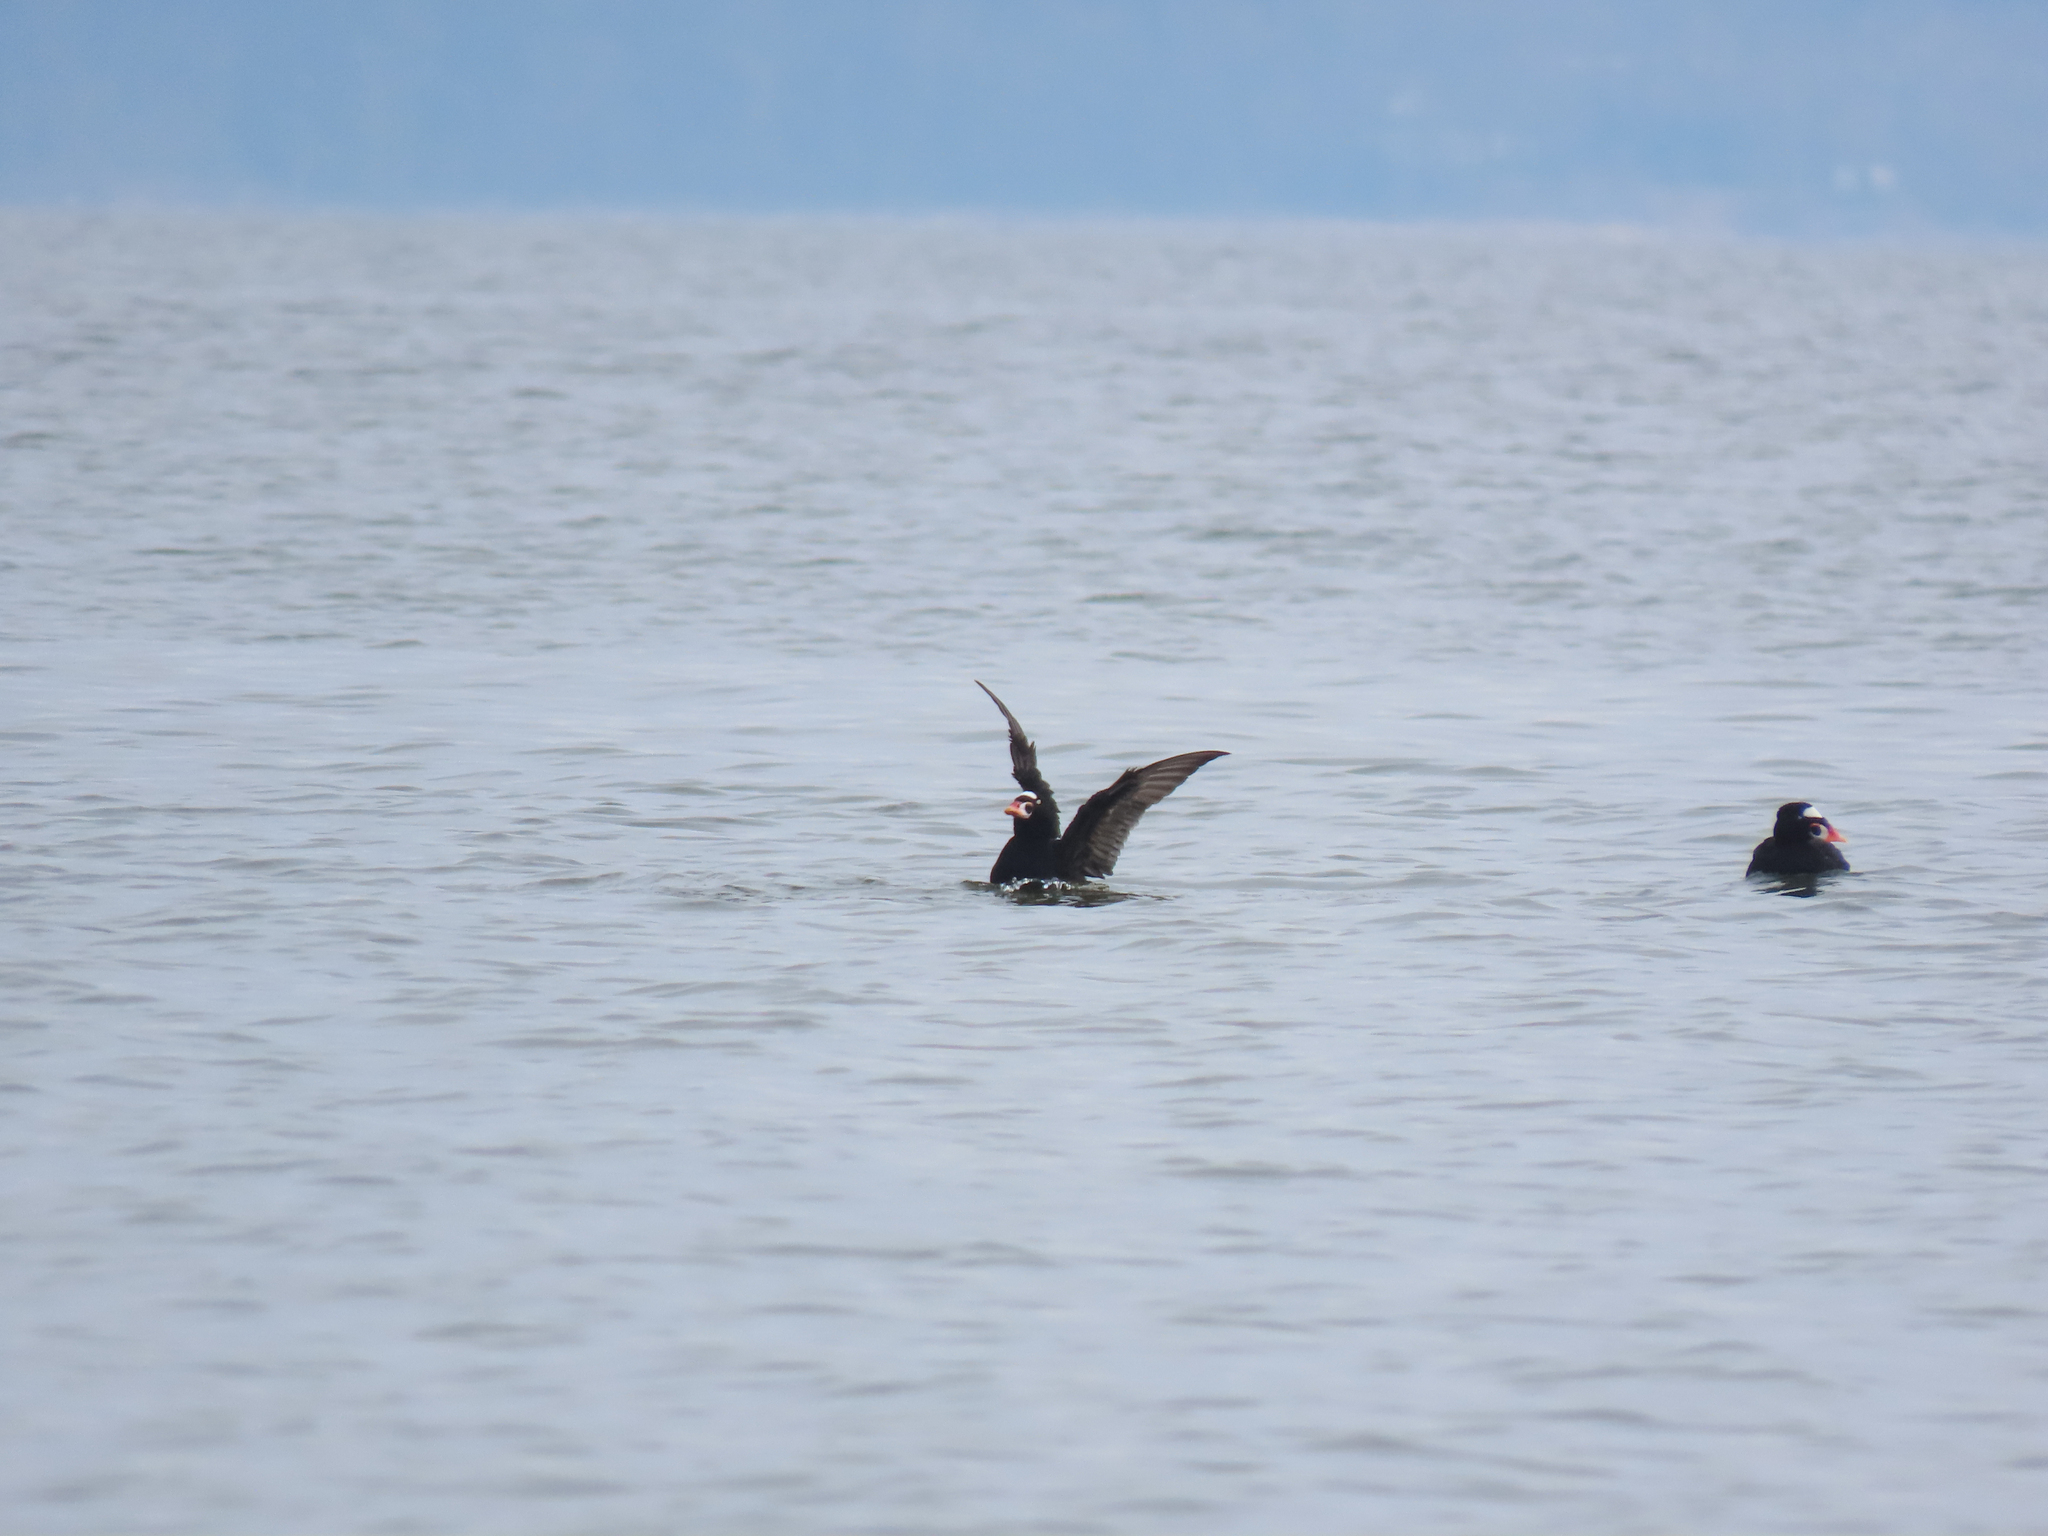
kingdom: Animalia
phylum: Chordata
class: Aves
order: Anseriformes
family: Anatidae
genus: Melanitta
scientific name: Melanitta perspicillata
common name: Surf scoter
